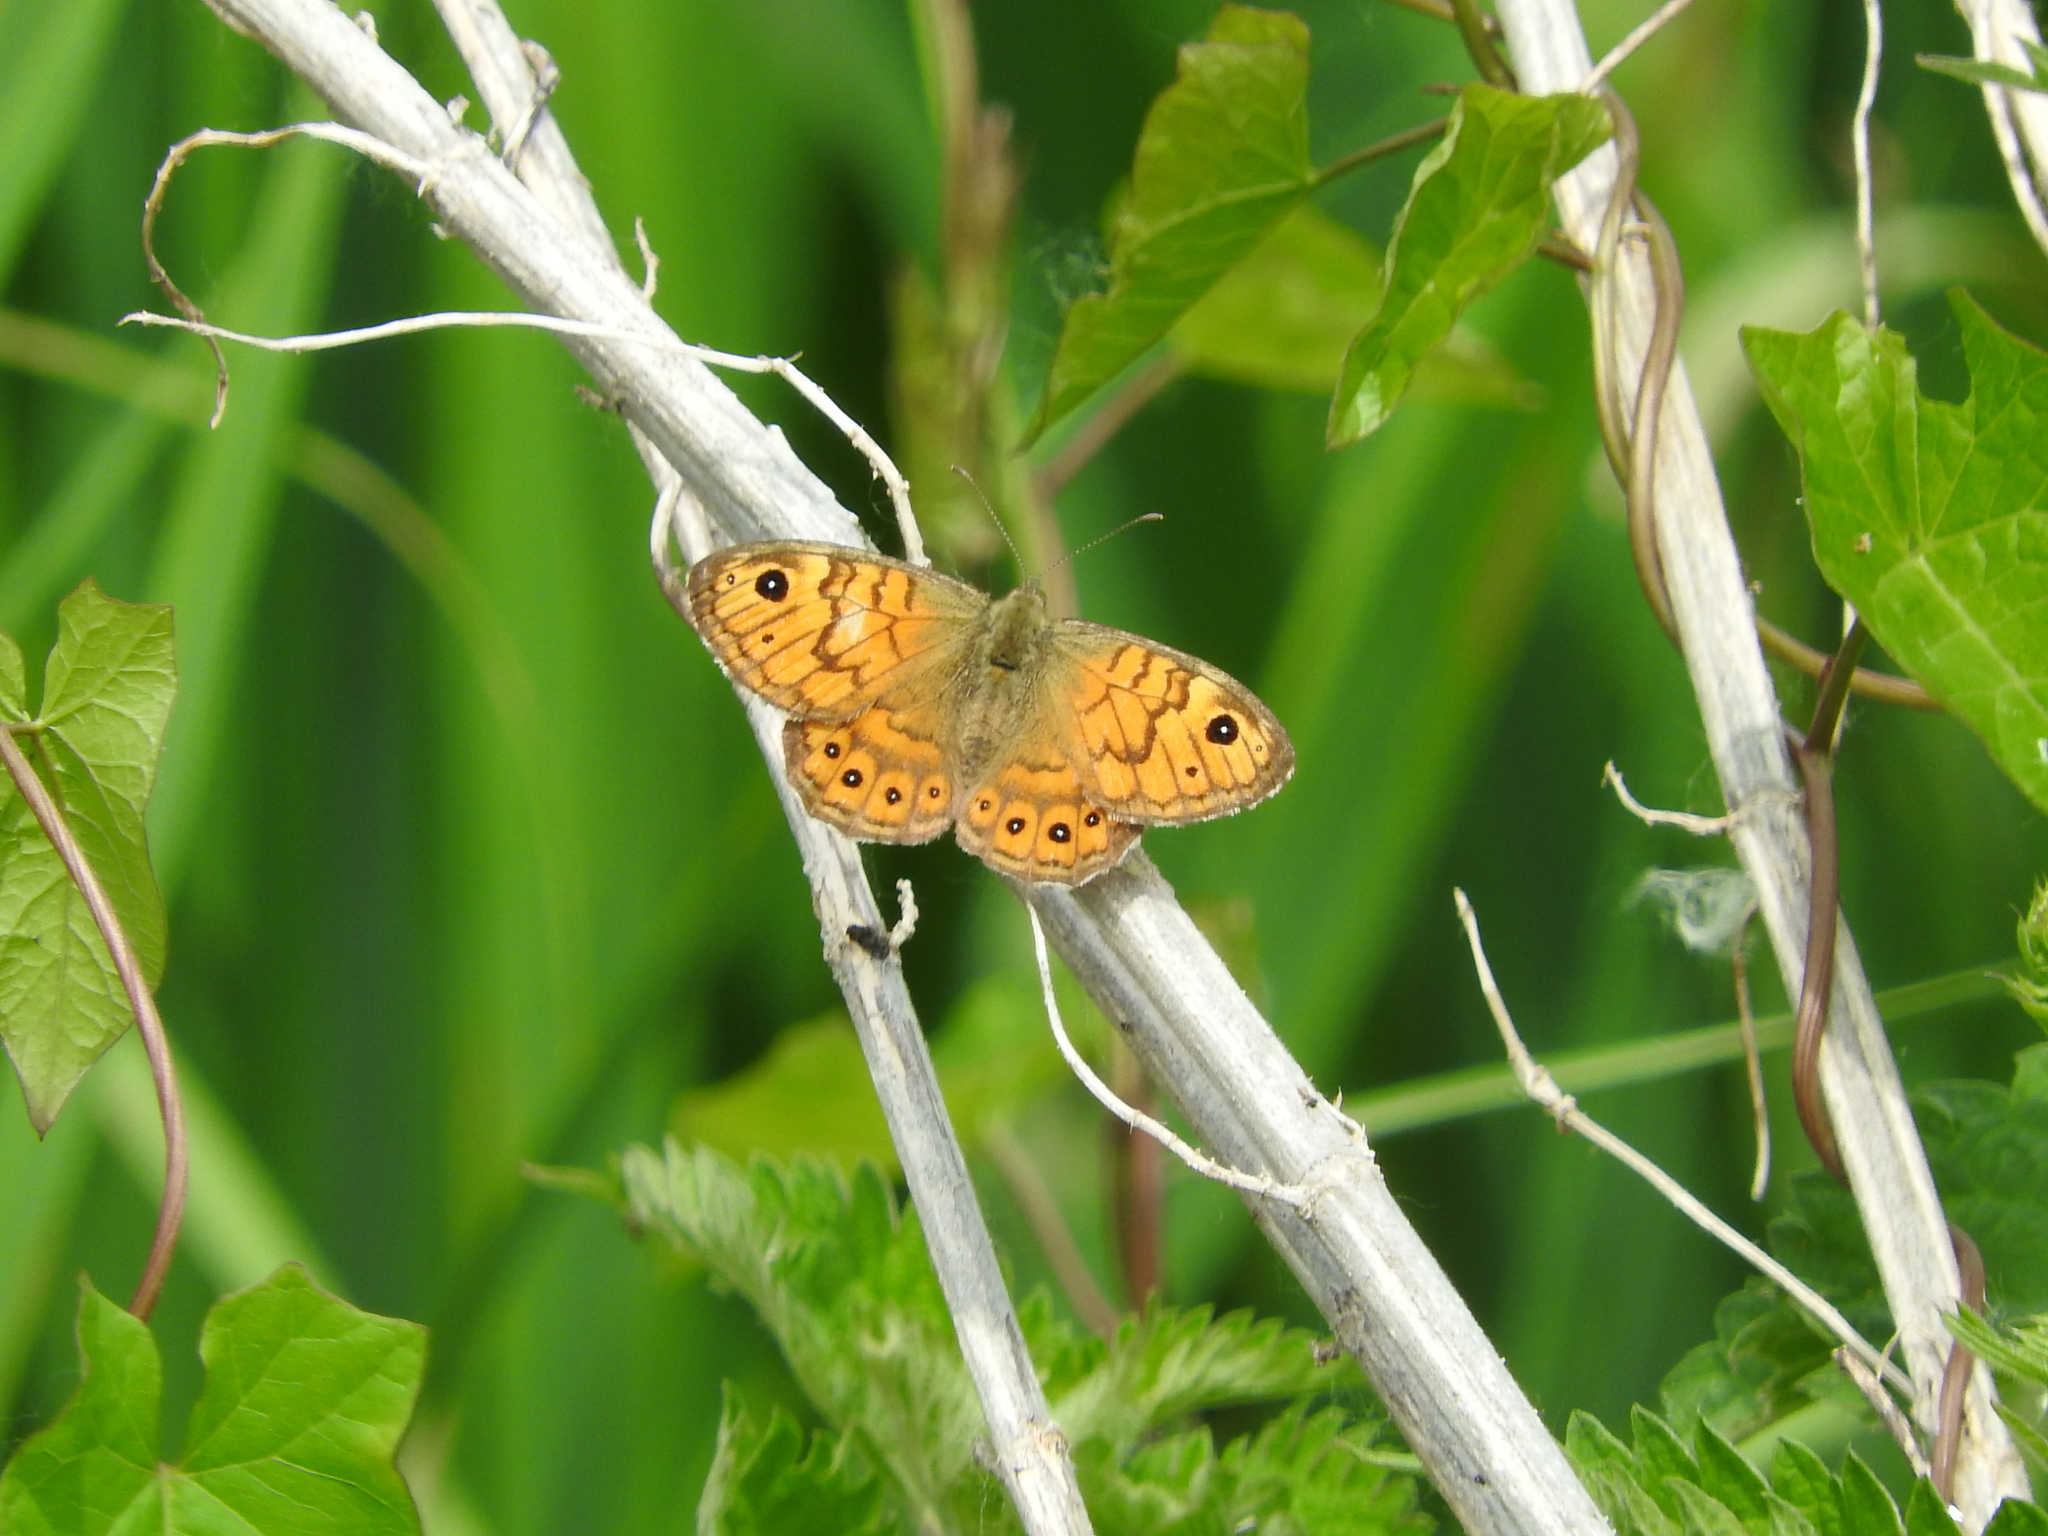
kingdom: Animalia
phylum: Arthropoda
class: Insecta
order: Lepidoptera
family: Nymphalidae
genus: Pararge
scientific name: Pararge Lasiommata megera
